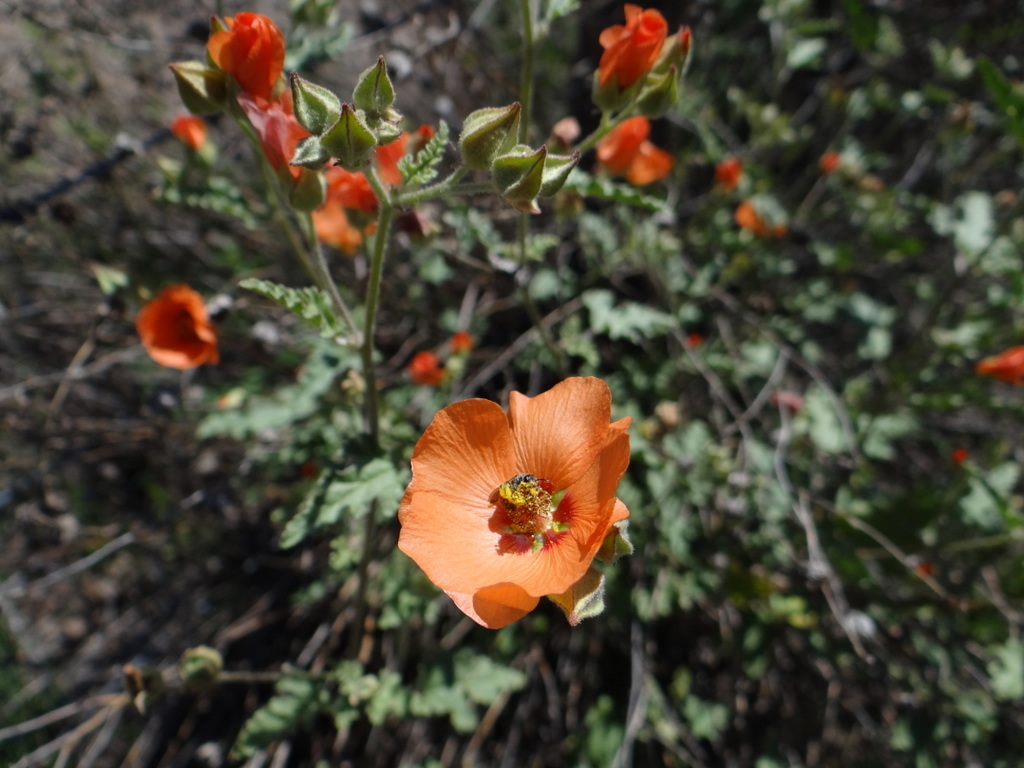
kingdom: Plantae
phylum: Tracheophyta
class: Magnoliopsida
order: Malvales
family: Malvaceae
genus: Sphaeralcea
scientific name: Sphaeralcea miniata
